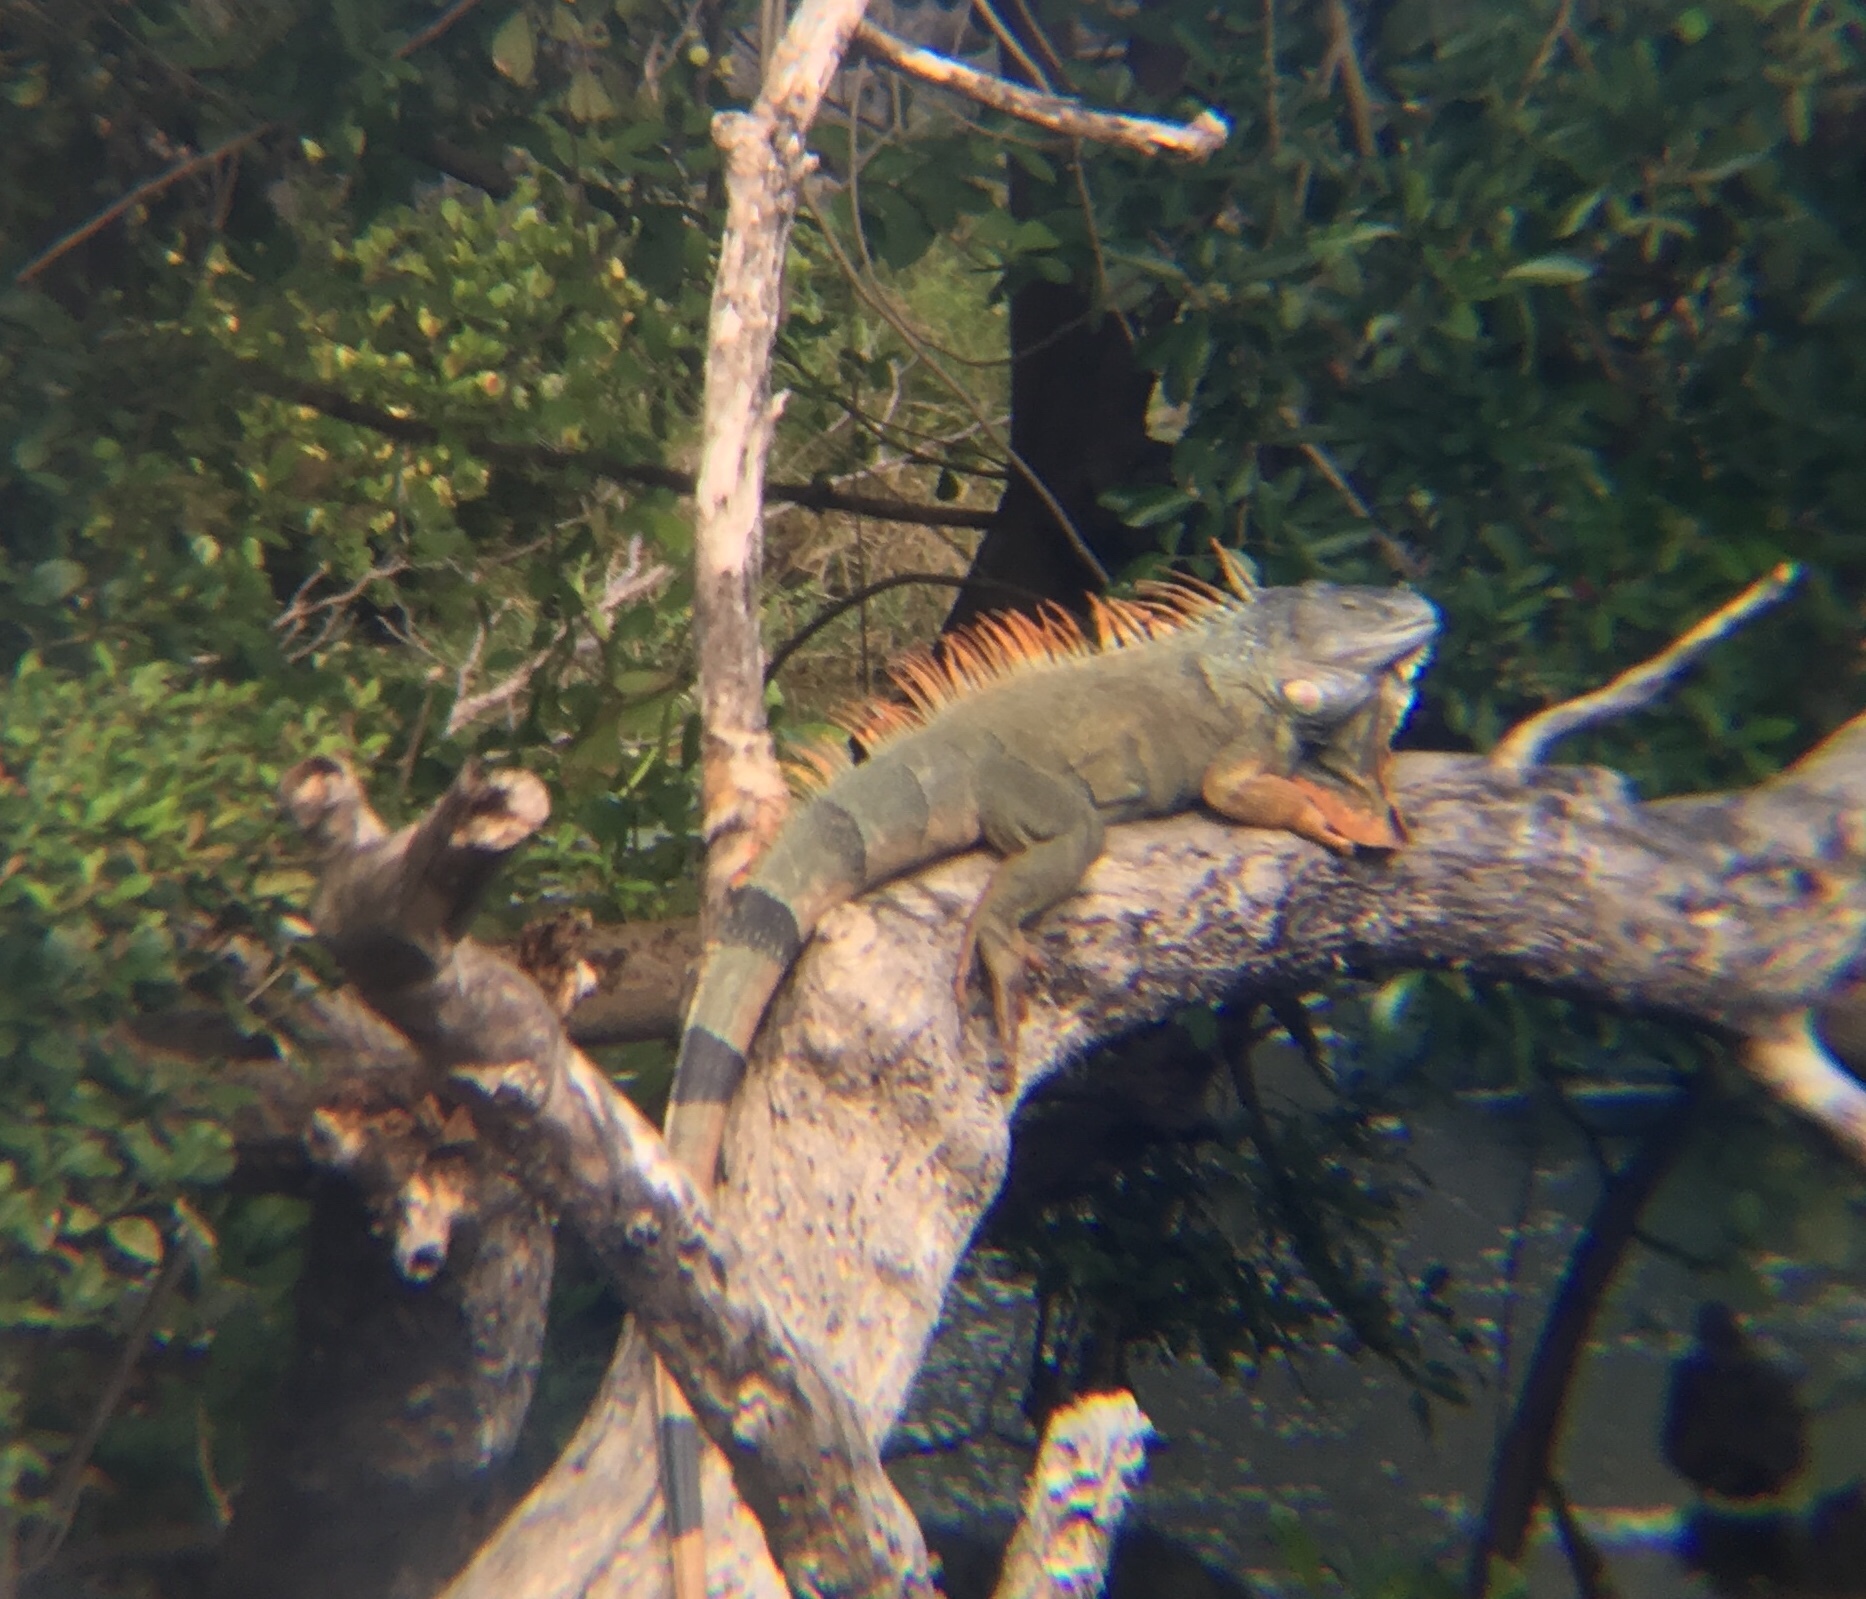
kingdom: Animalia
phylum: Chordata
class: Squamata
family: Iguanidae
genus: Iguana
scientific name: Iguana iguana
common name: Green iguana
